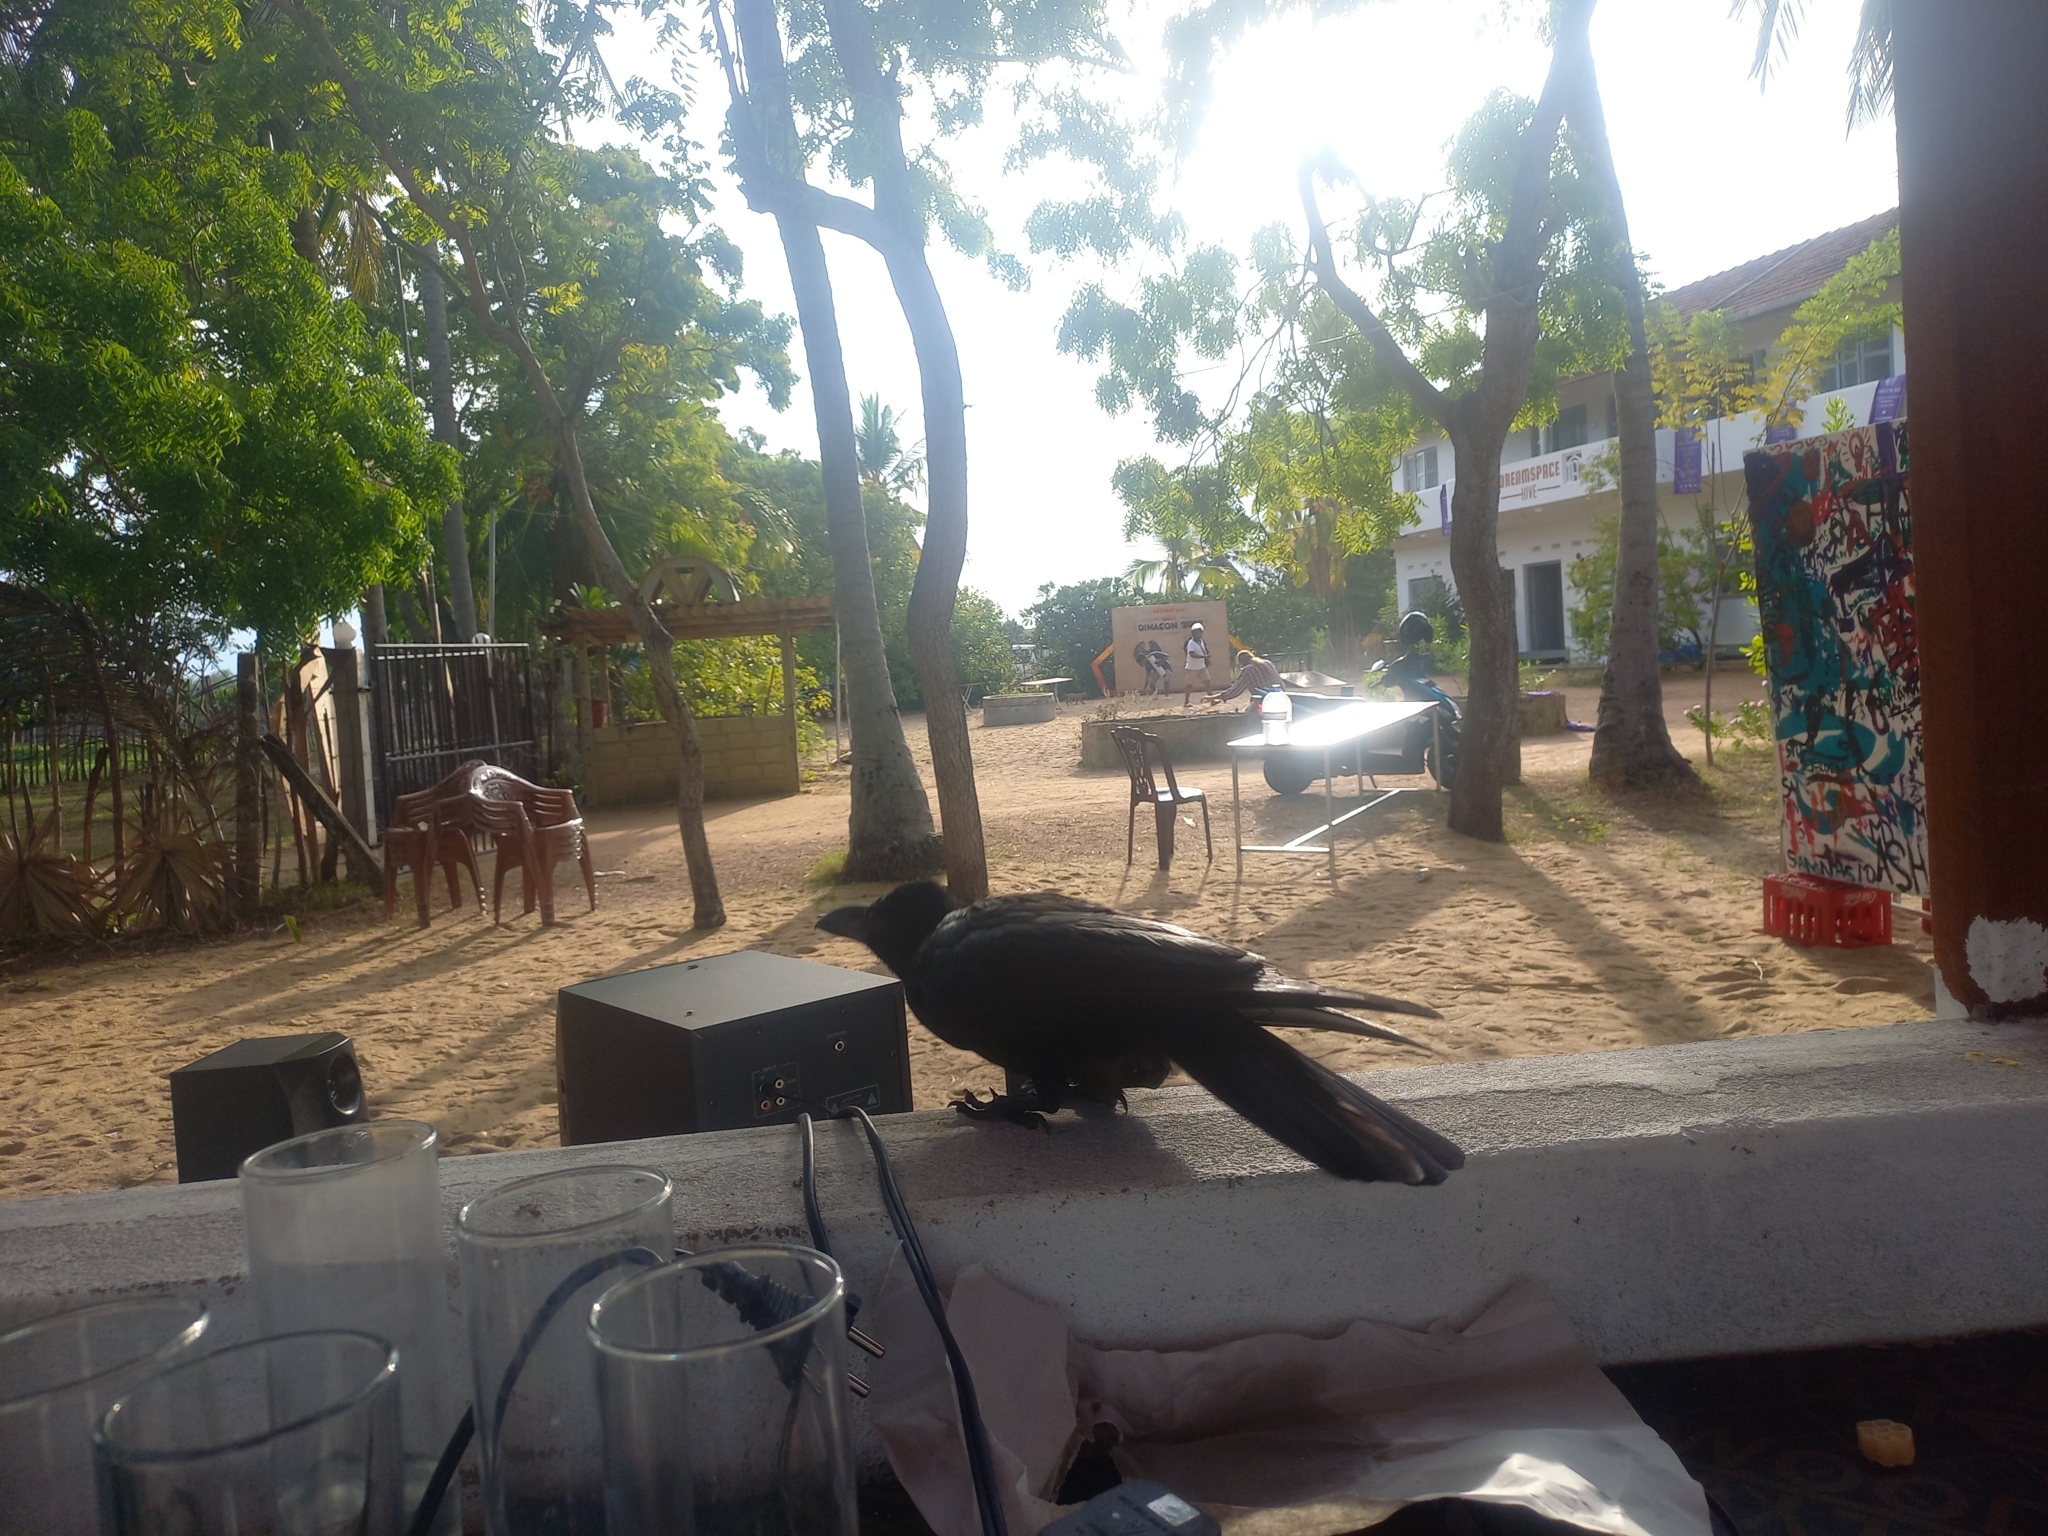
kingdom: Animalia
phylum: Chordata
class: Aves
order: Passeriformes
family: Corvidae
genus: Corvus
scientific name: Corvus splendens
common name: House crow
